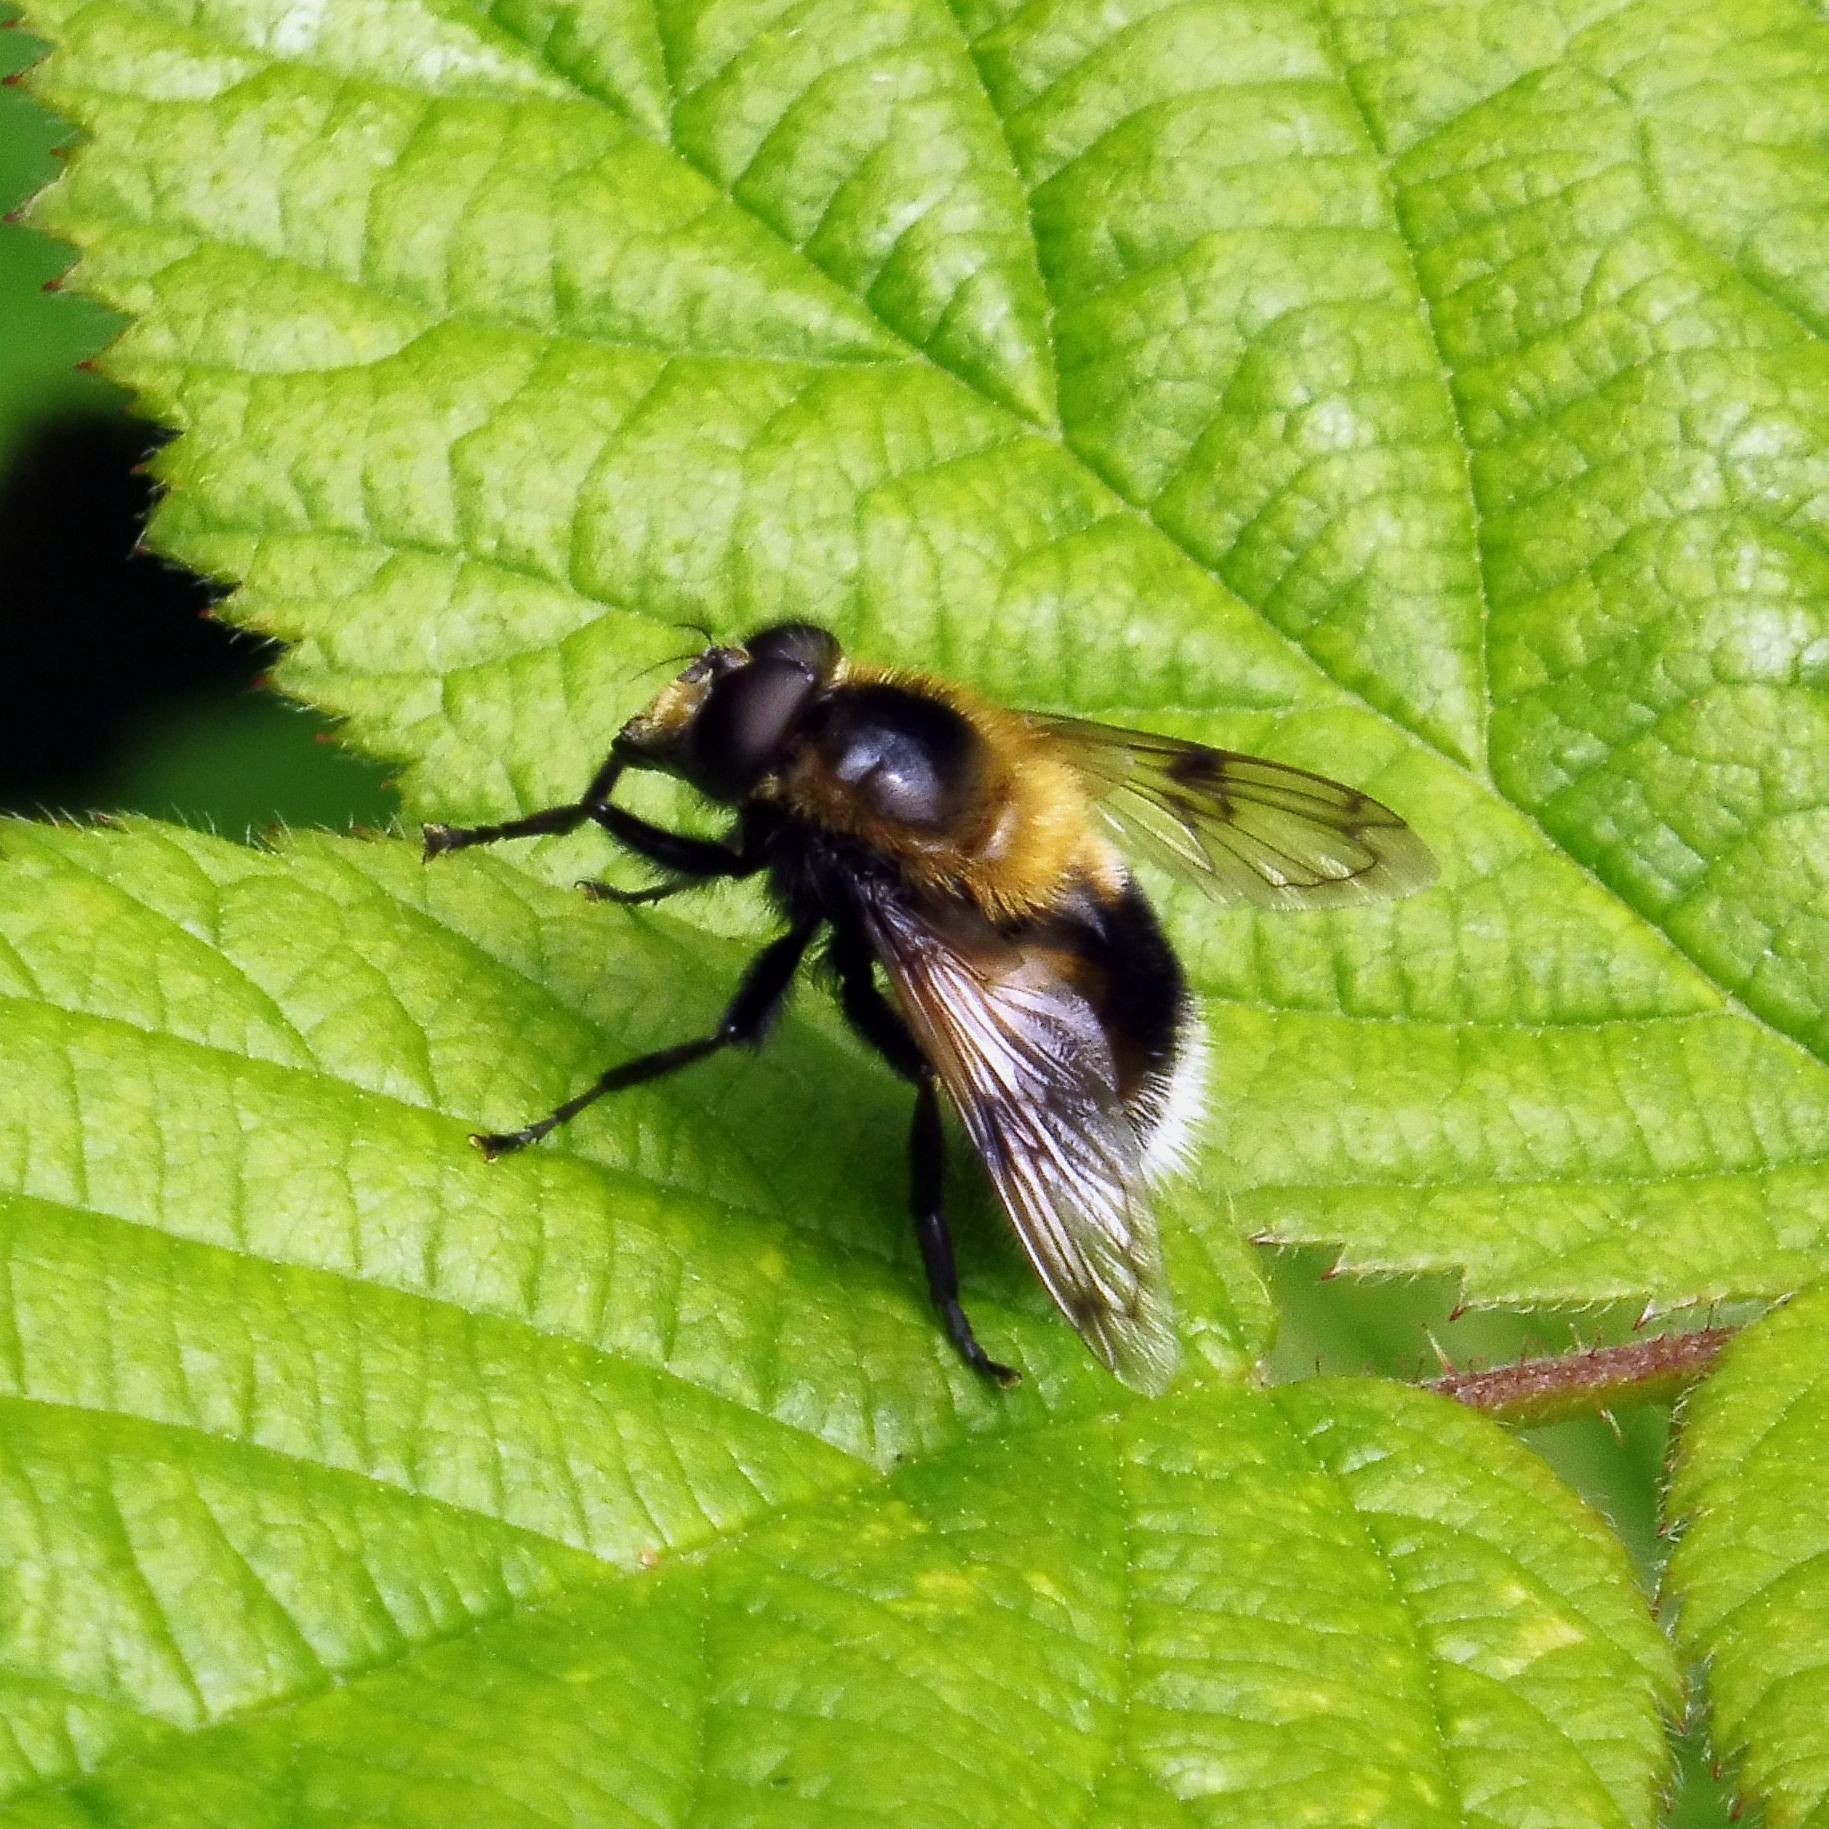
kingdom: Animalia
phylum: Arthropoda
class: Insecta
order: Diptera
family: Syrphidae
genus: Volucella
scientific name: Volucella bombylans
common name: Bumble bee hover fly
